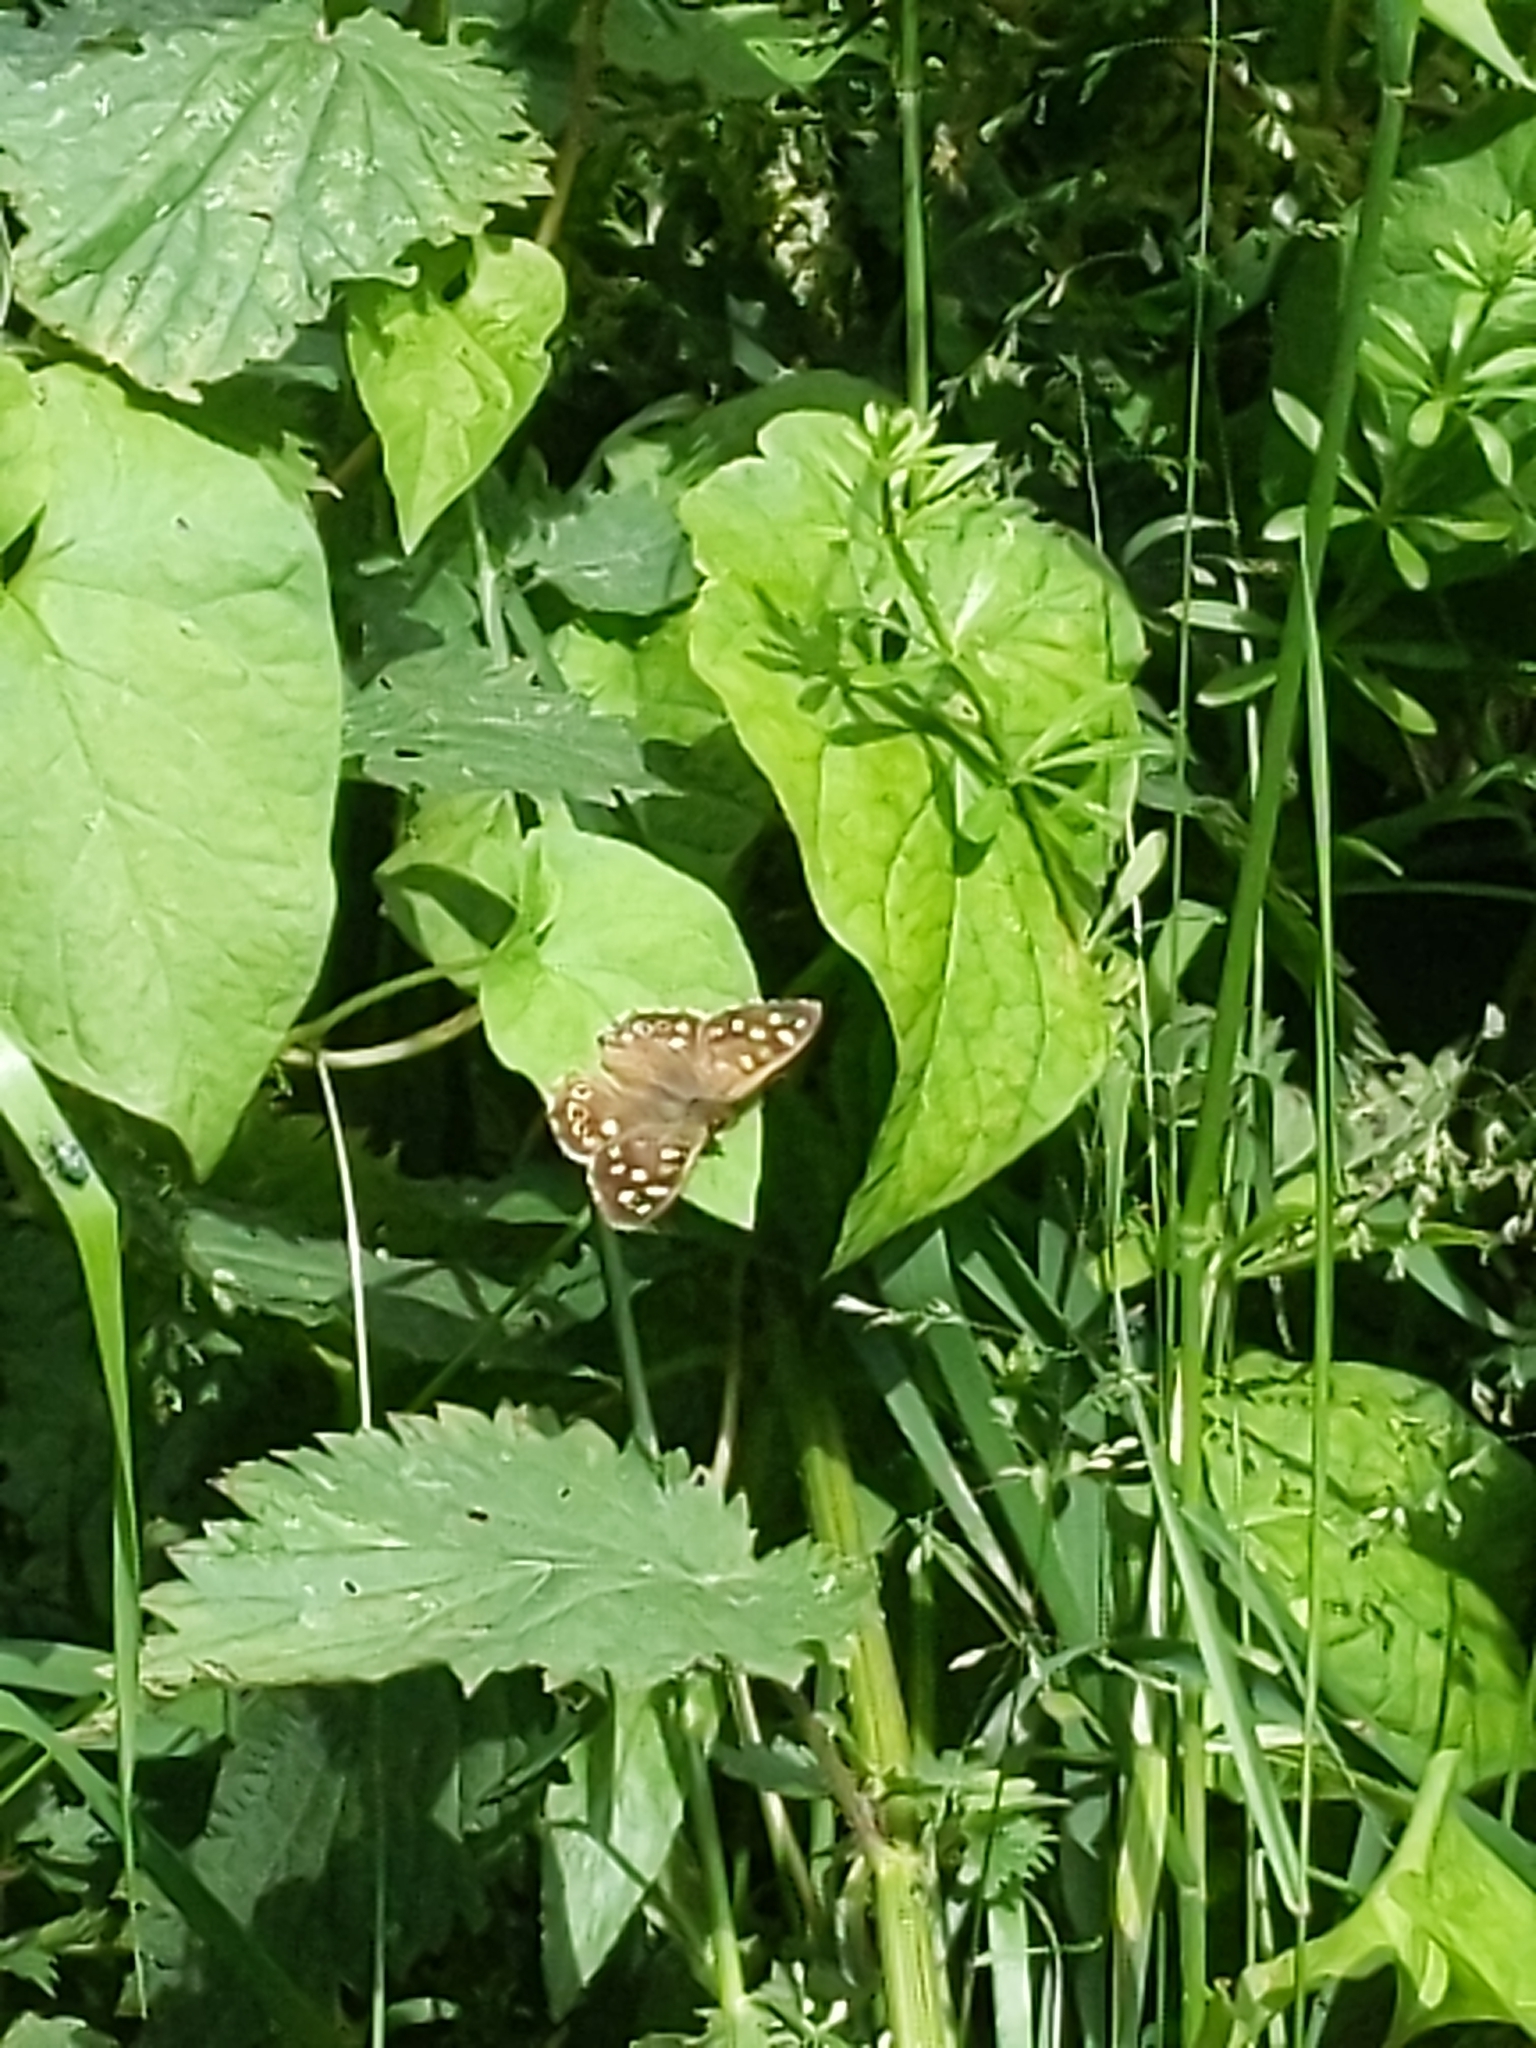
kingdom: Animalia
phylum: Arthropoda
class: Insecta
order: Lepidoptera
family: Nymphalidae
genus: Pararge
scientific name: Pararge aegeria
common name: Speckled wood
